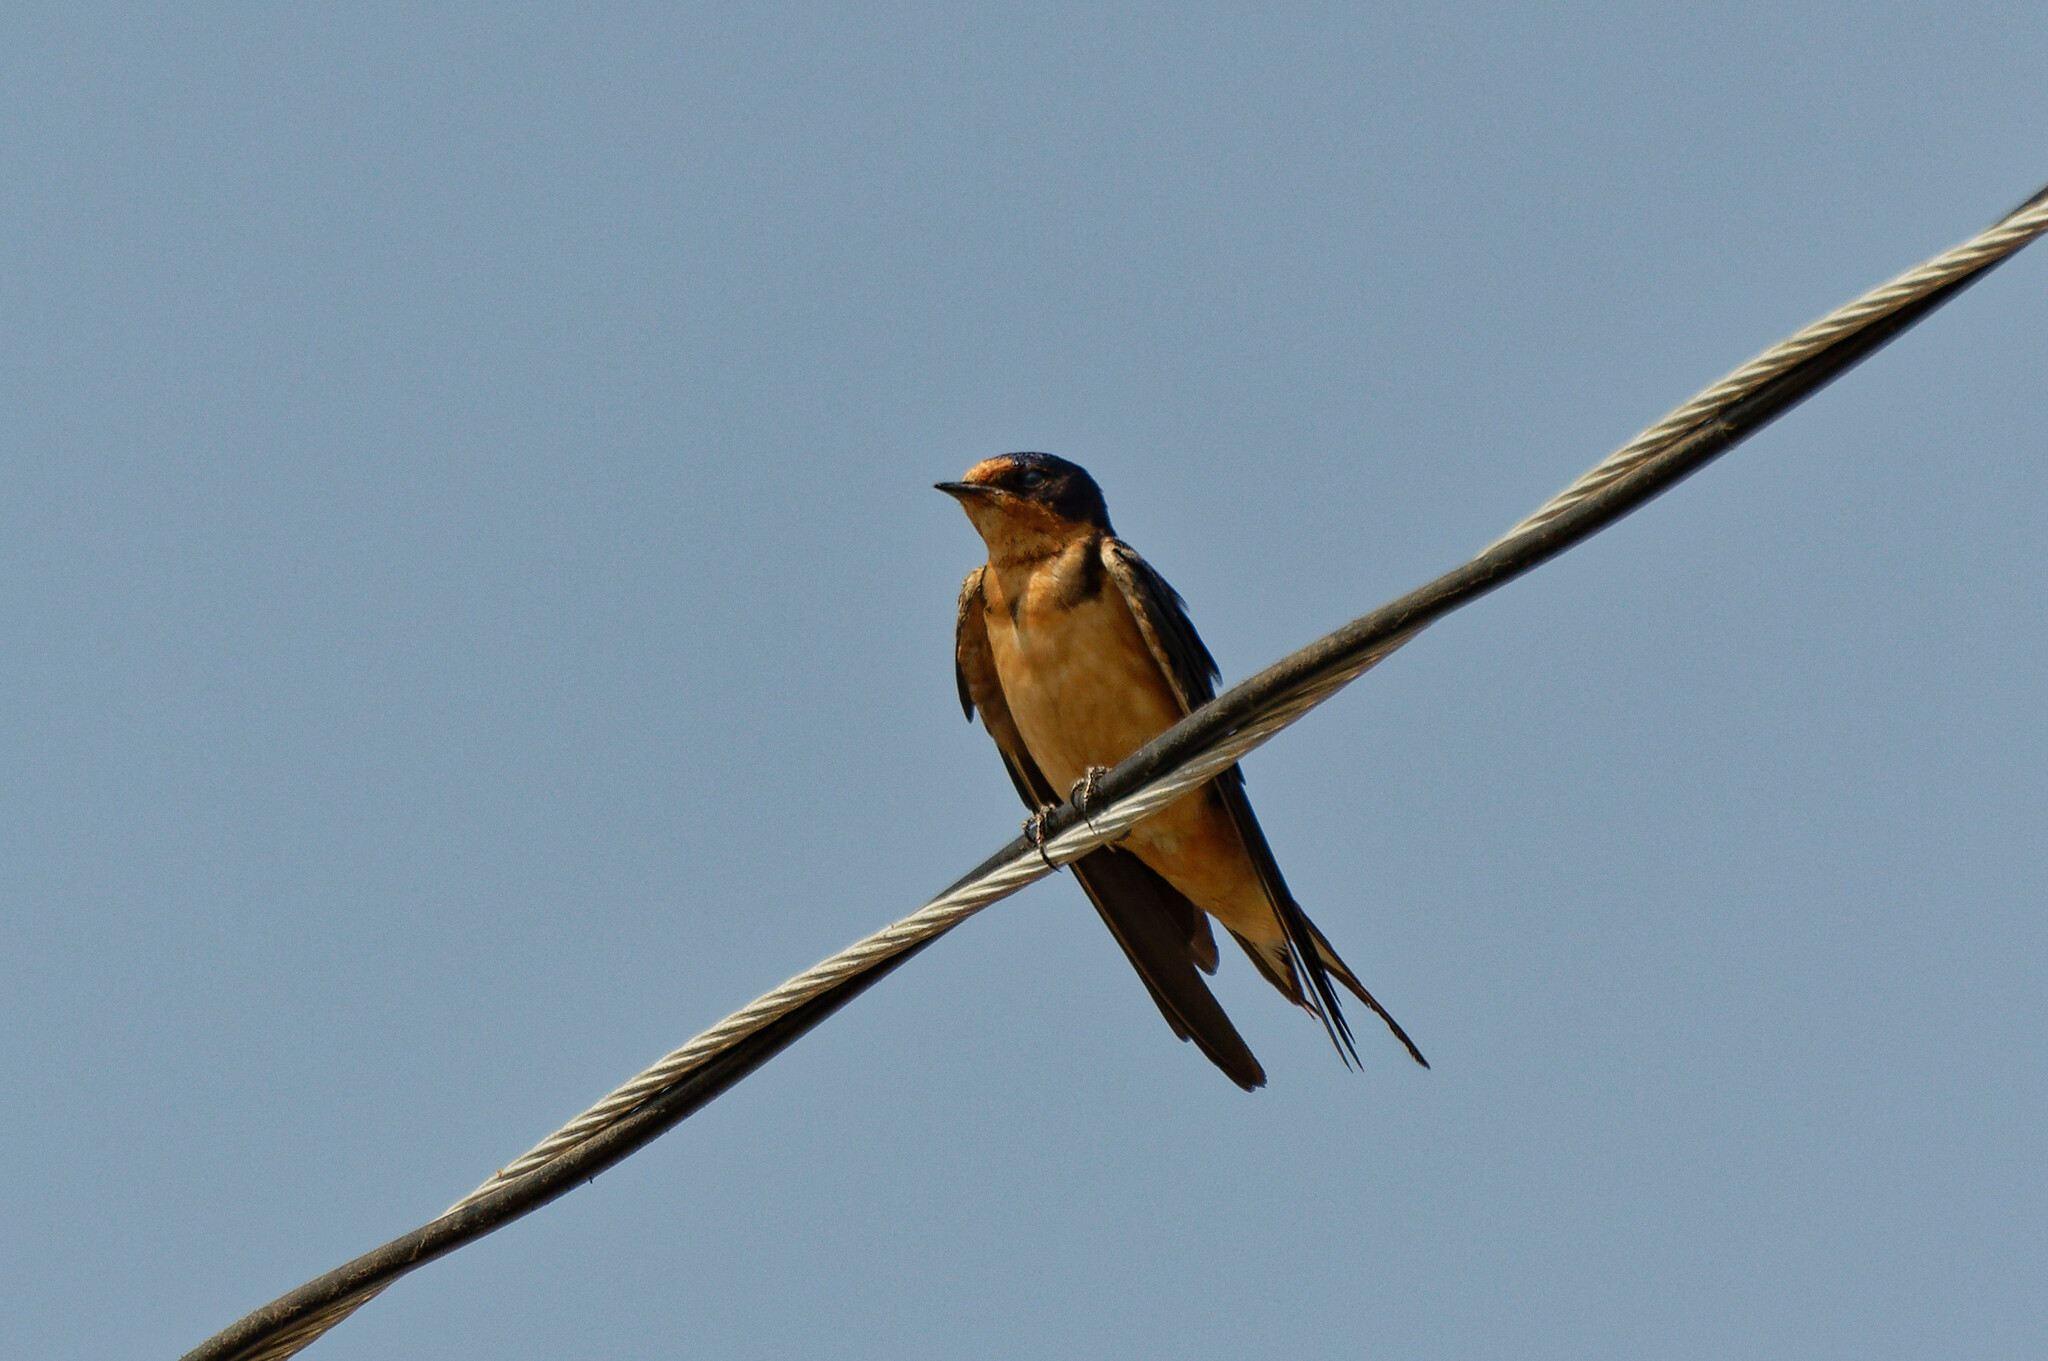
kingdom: Animalia
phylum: Chordata
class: Aves
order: Passeriformes
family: Hirundinidae
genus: Hirundo
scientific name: Hirundo rustica
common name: Barn swallow
